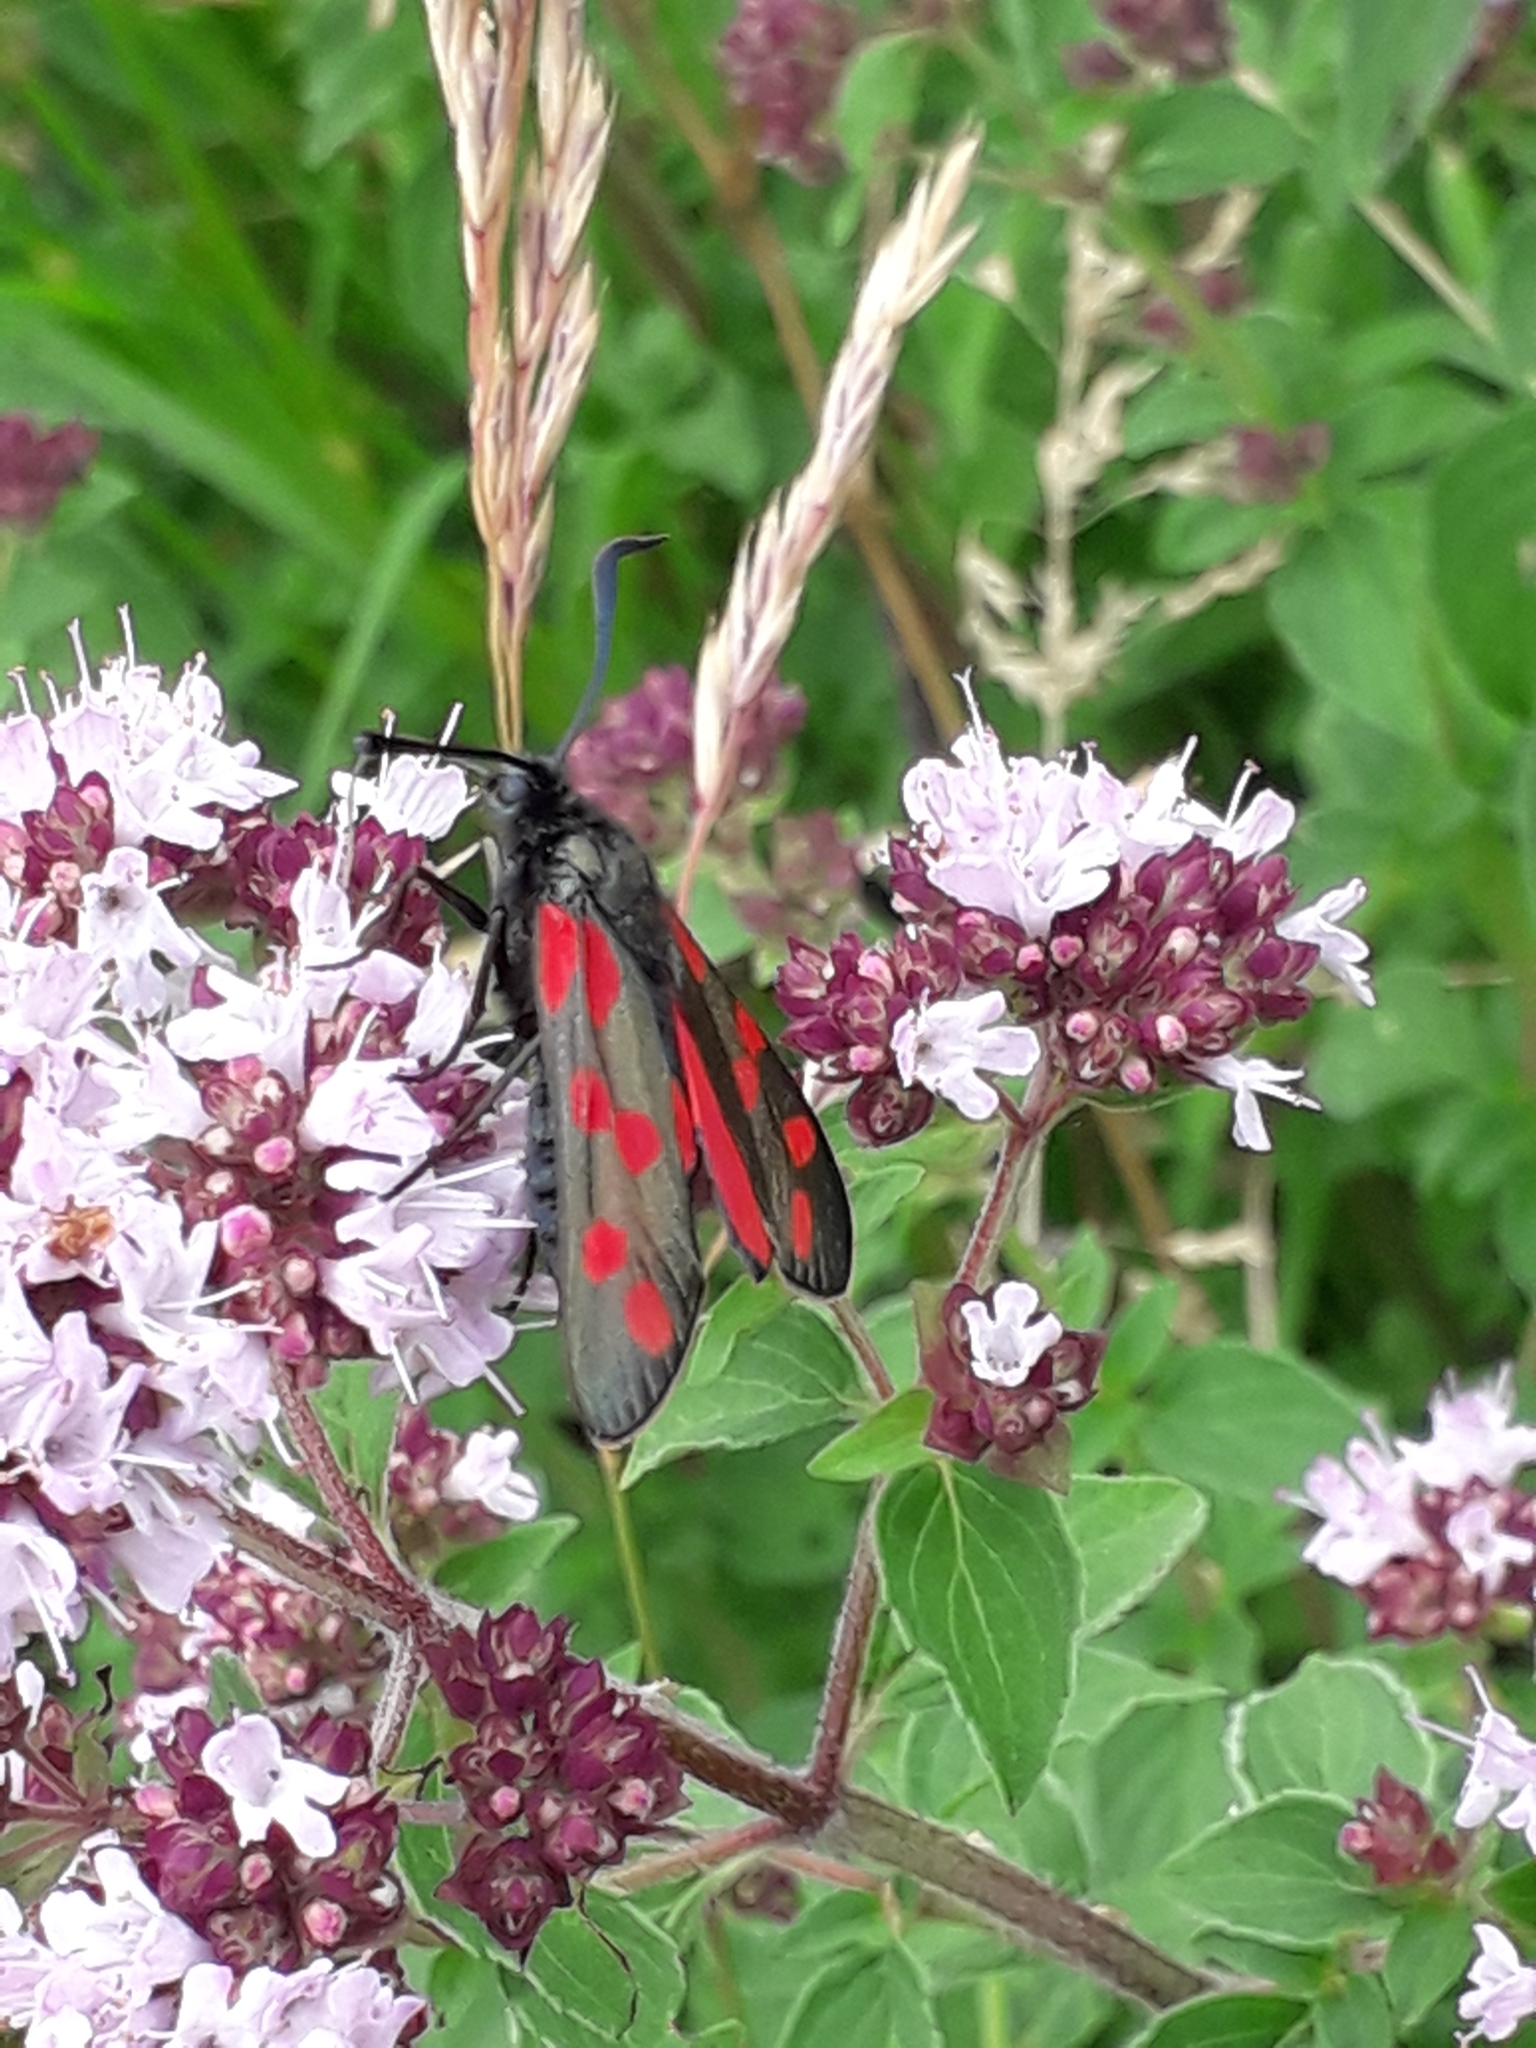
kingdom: Animalia
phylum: Arthropoda
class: Insecta
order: Lepidoptera
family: Zygaenidae
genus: Zygaena
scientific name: Zygaena filipendulae
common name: Six-spot burnet
